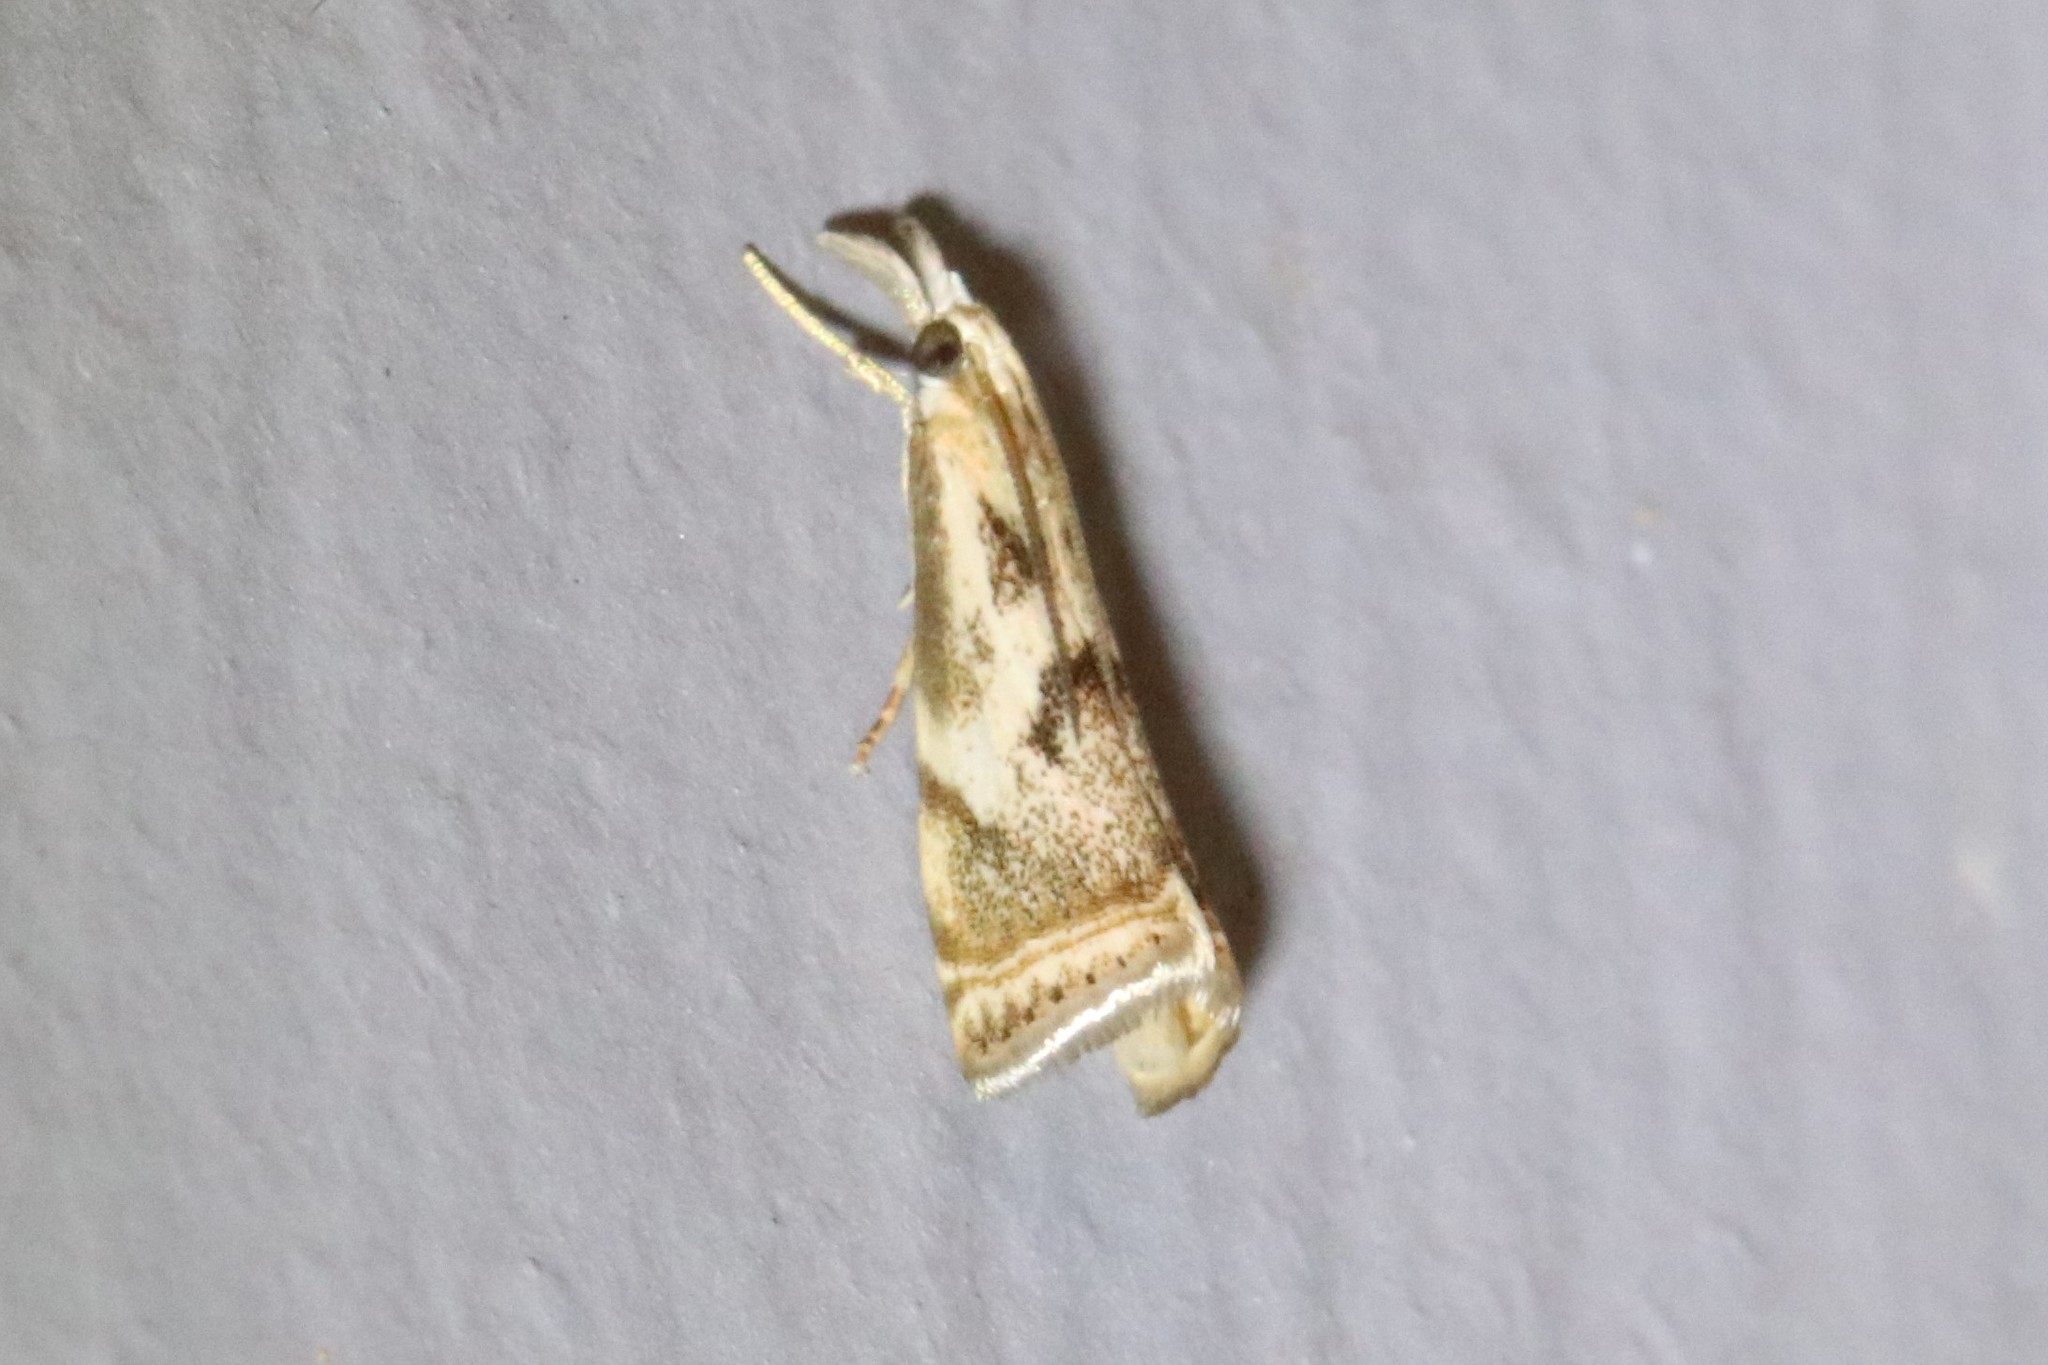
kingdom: Animalia
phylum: Arthropoda
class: Insecta
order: Lepidoptera
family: Crambidae
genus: Microcrambus
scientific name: Microcrambus elegans
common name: Elegant grass-veneer
